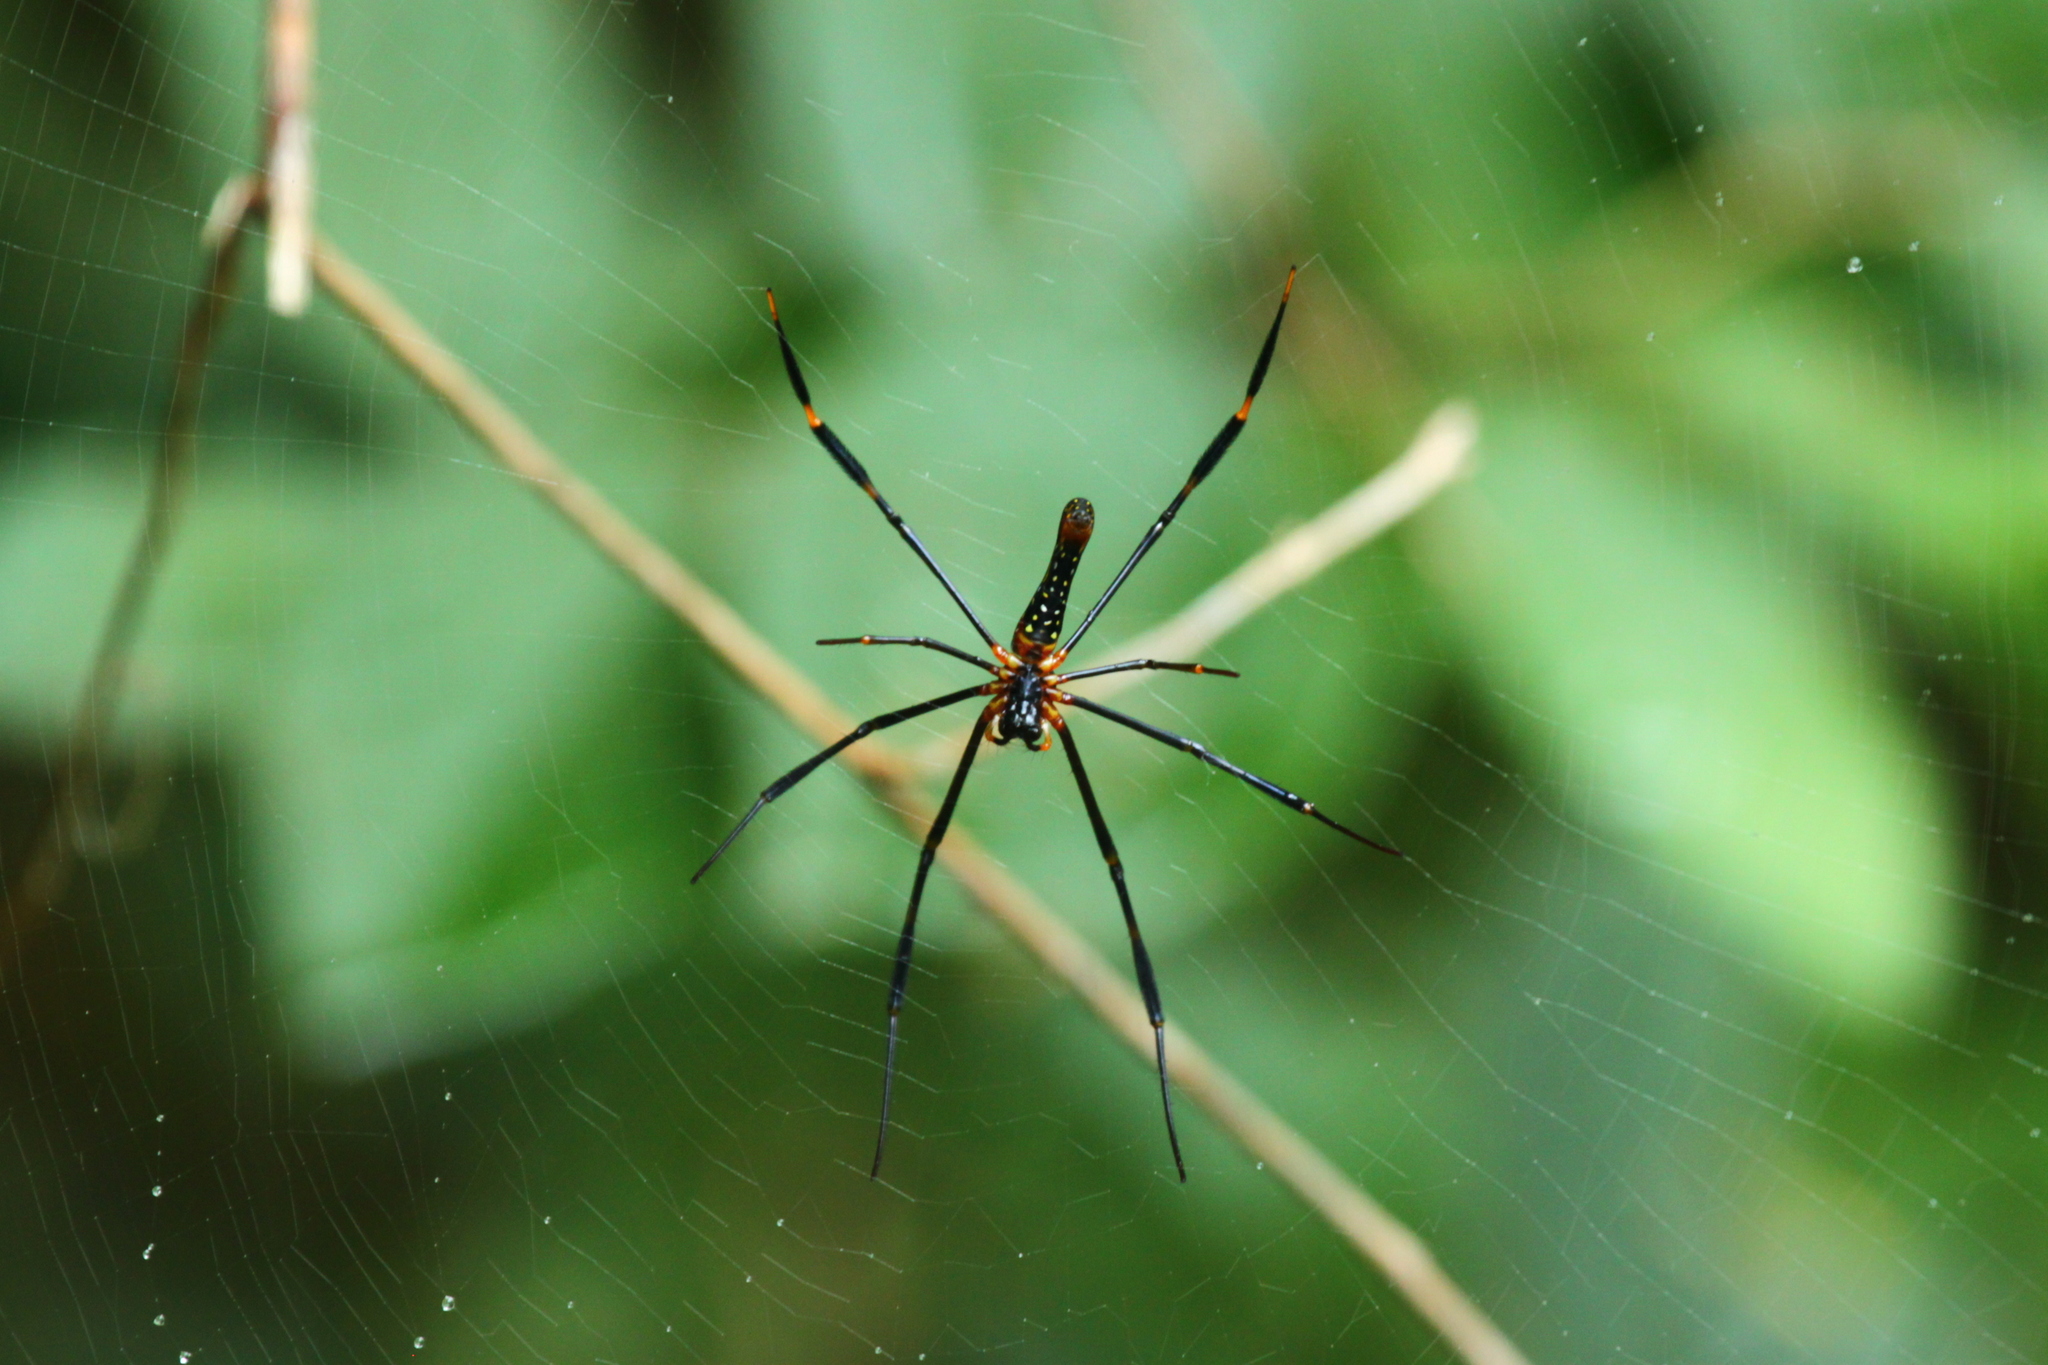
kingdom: Animalia
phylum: Arthropoda
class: Arachnida
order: Araneae
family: Araneidae
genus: Nephila
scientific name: Nephila pilipes
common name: Giant golden orb weaver
